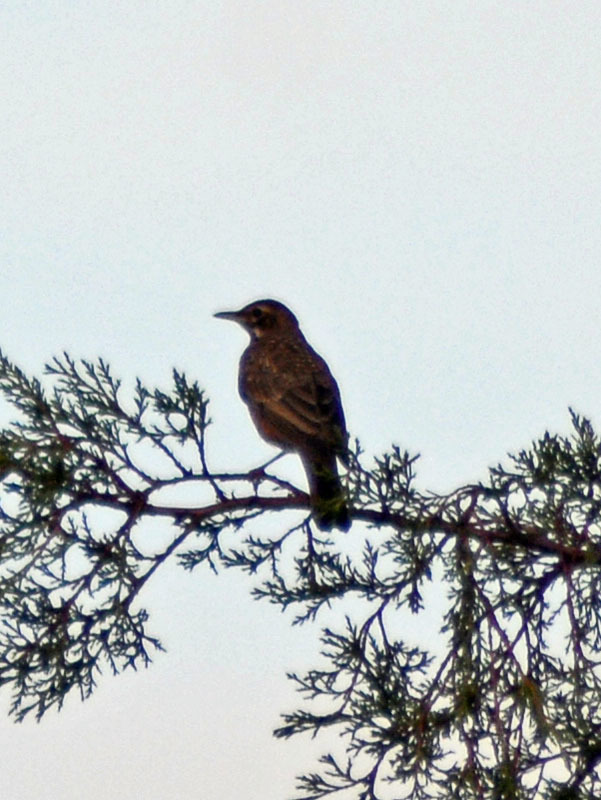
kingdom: Animalia
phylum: Chordata
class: Aves
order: Passeriformes
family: Turdidae
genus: Turdus
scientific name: Turdus migratorius
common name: American robin
